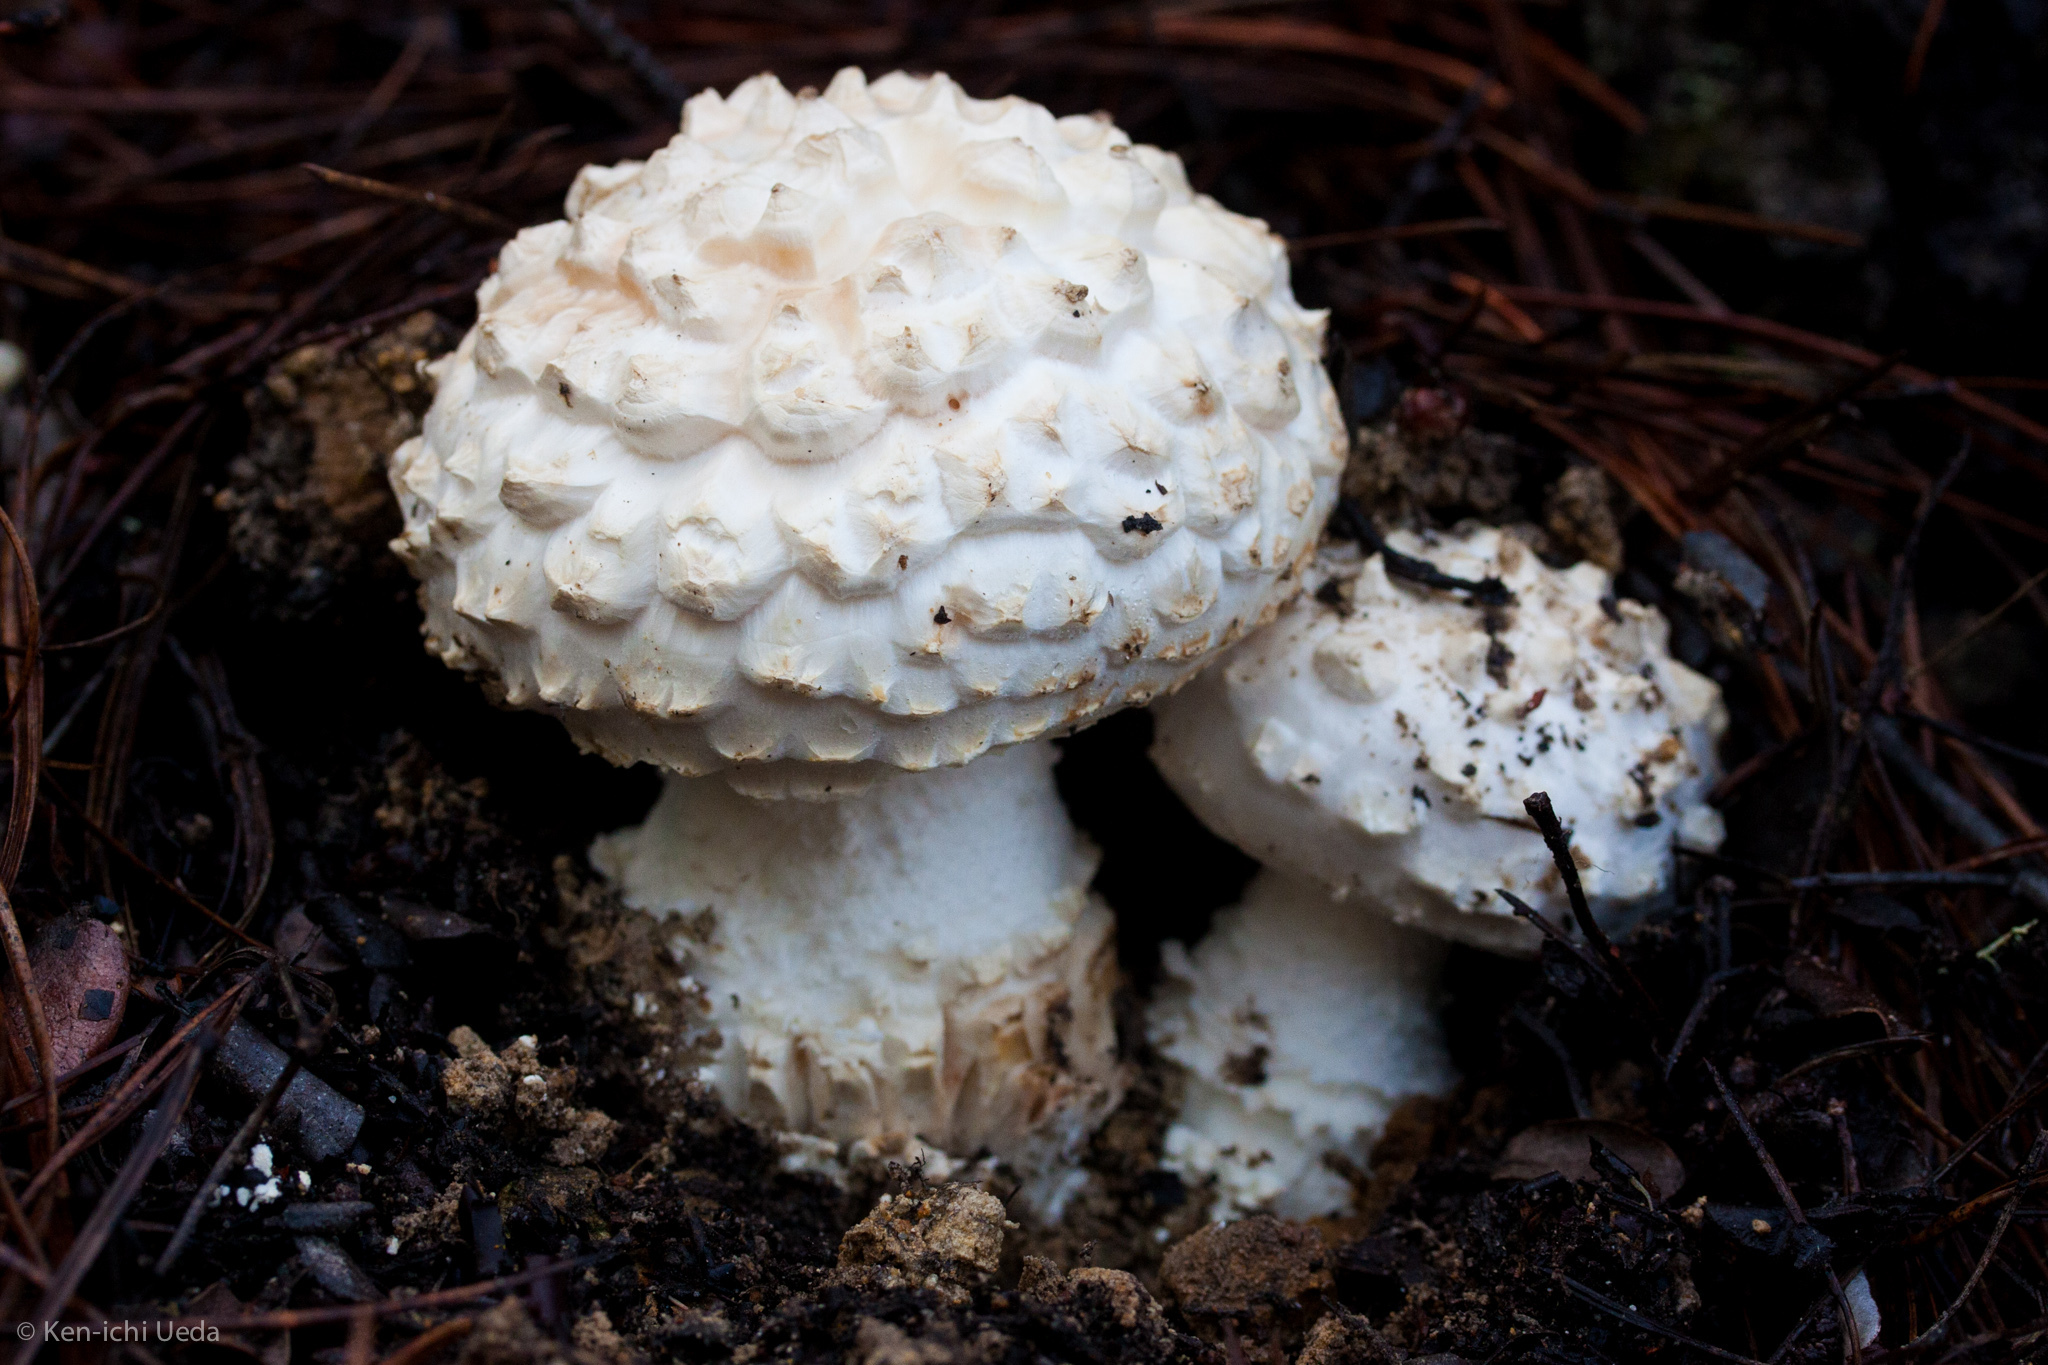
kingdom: Fungi
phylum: Basidiomycota
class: Agaricomycetes
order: Agaricales
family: Amanitaceae
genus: Amanita
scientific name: Amanita magniverrucata
